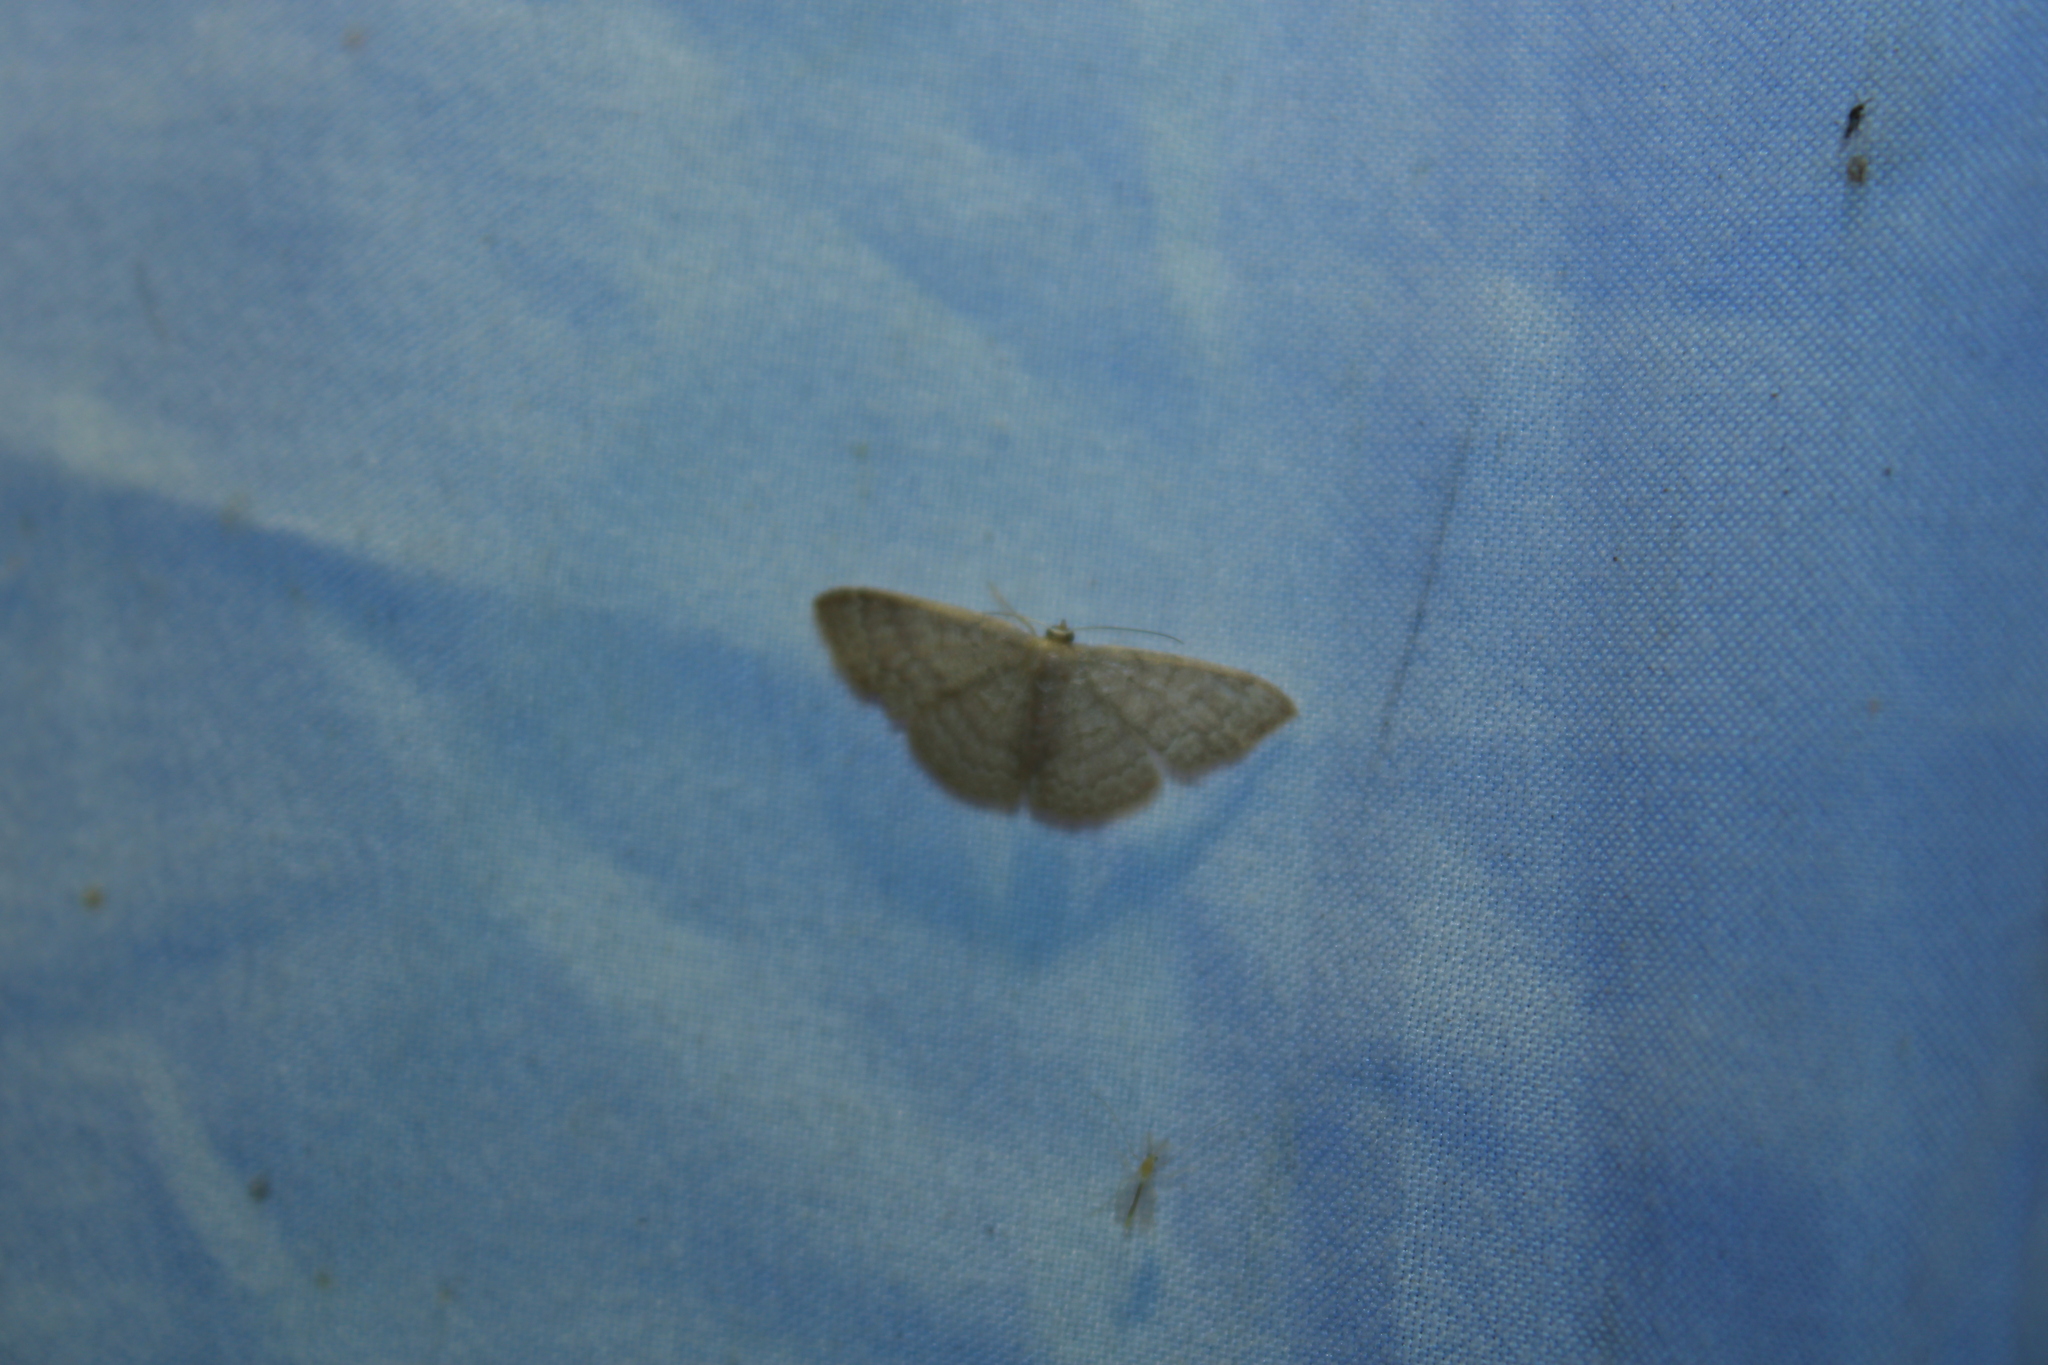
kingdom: Animalia
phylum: Arthropoda
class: Insecta
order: Lepidoptera
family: Geometridae
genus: Pleuroprucha
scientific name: Pleuroprucha insulsaria
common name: Common tan wave
